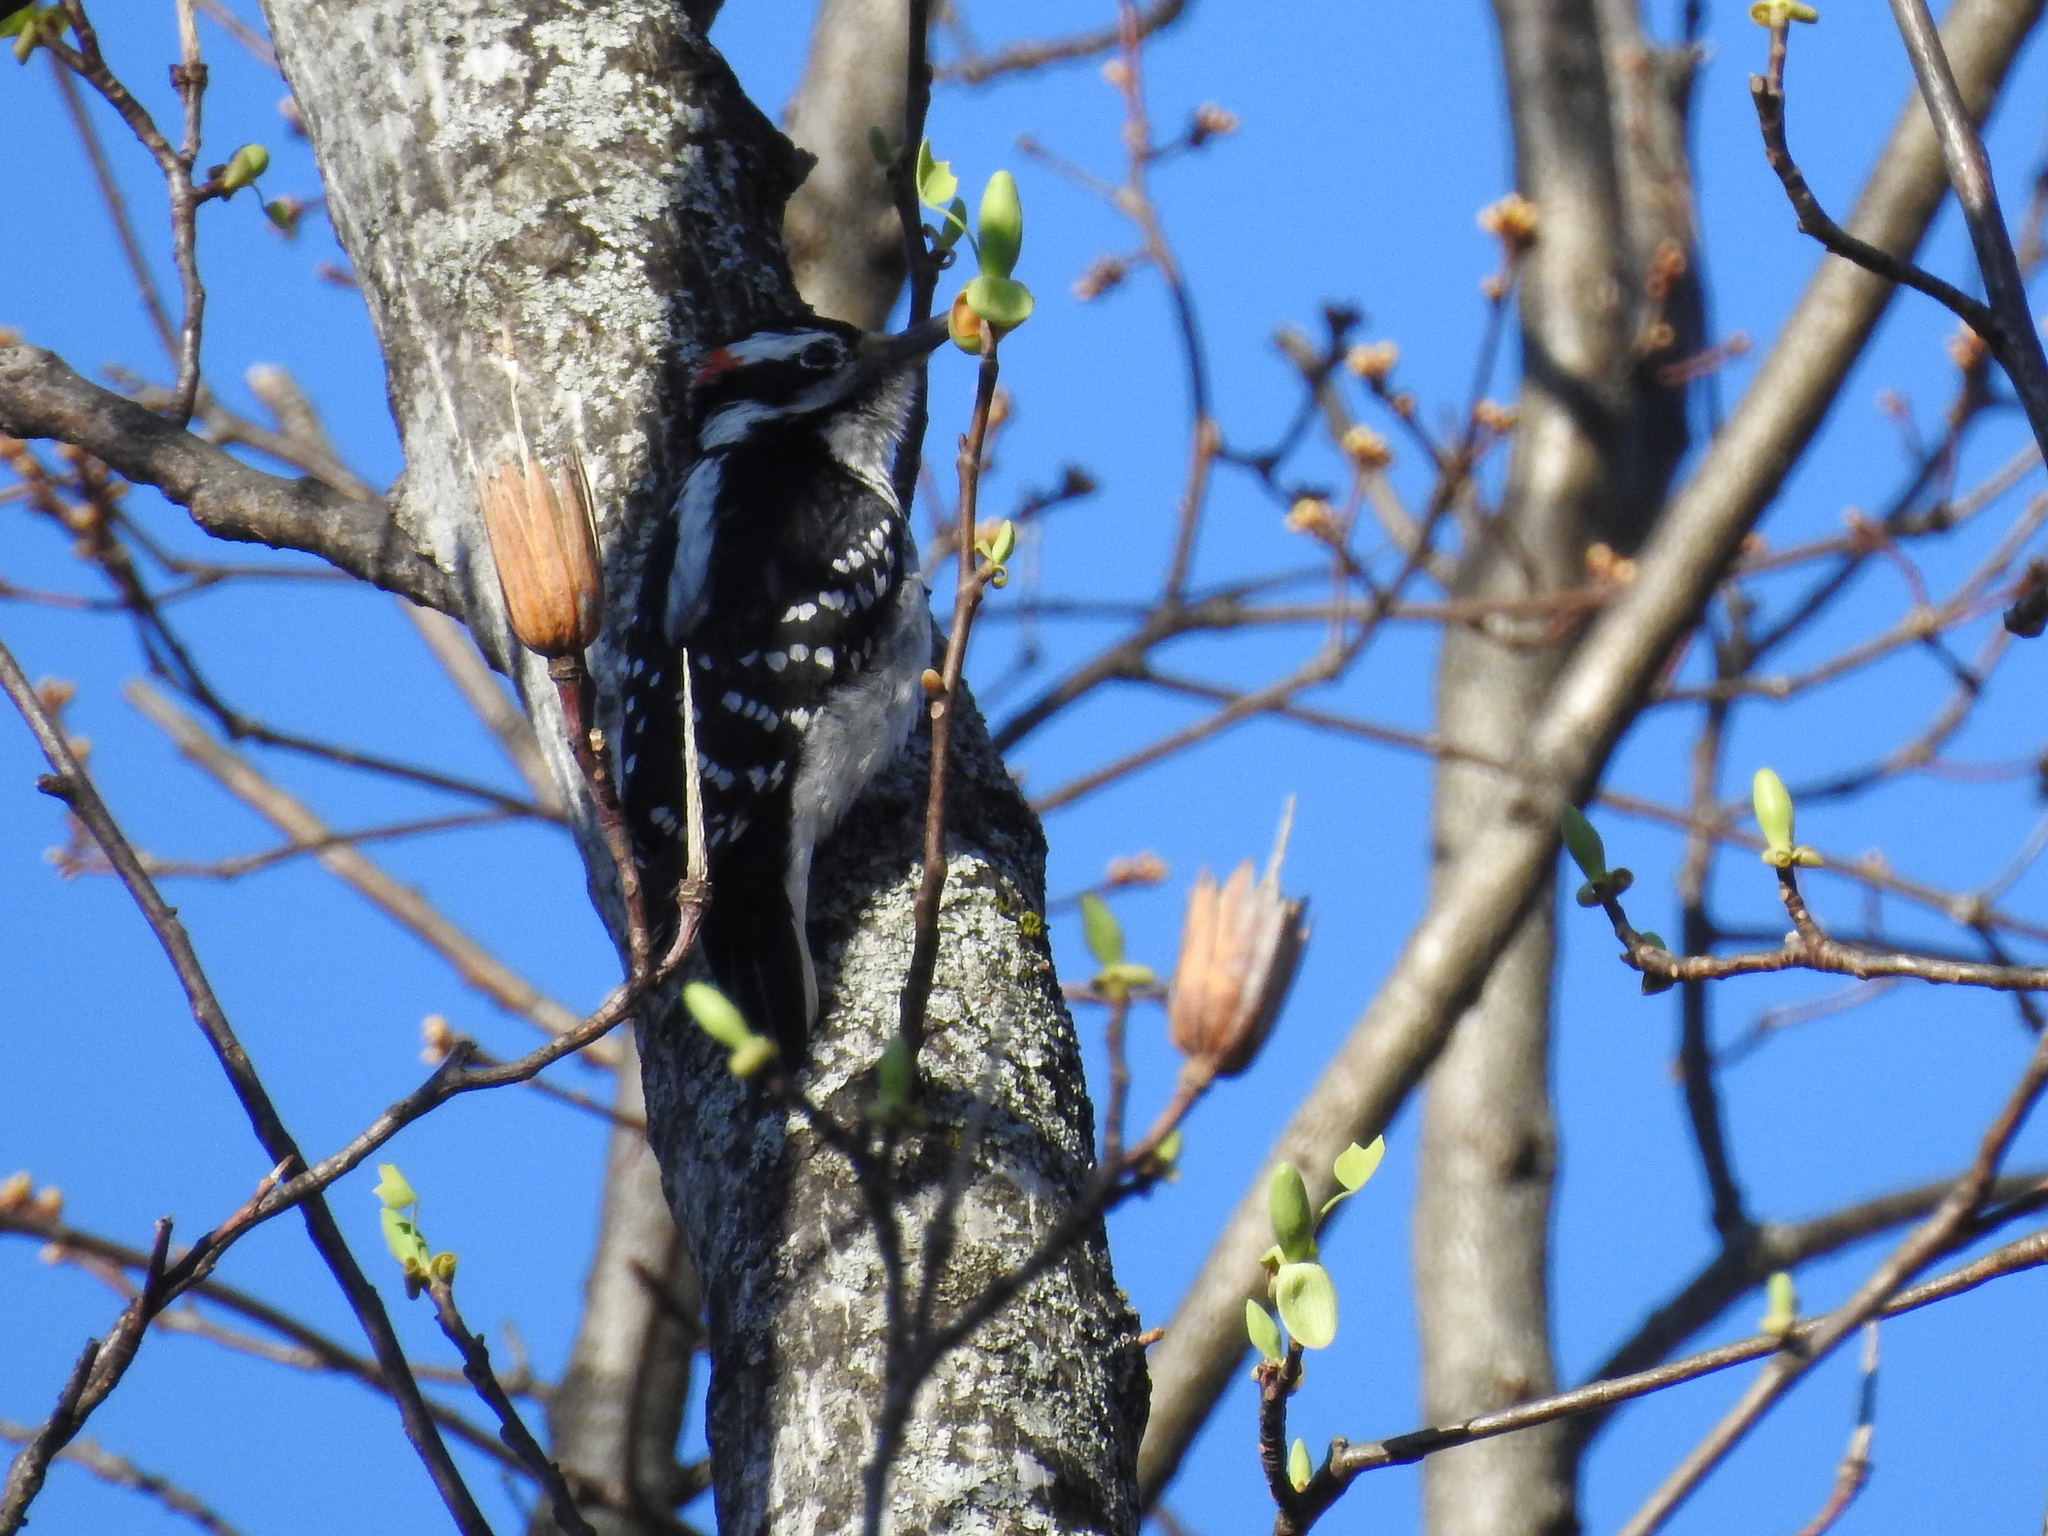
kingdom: Animalia
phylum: Chordata
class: Aves
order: Piciformes
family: Picidae
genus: Leuconotopicus
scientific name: Leuconotopicus villosus
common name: Hairy woodpecker
